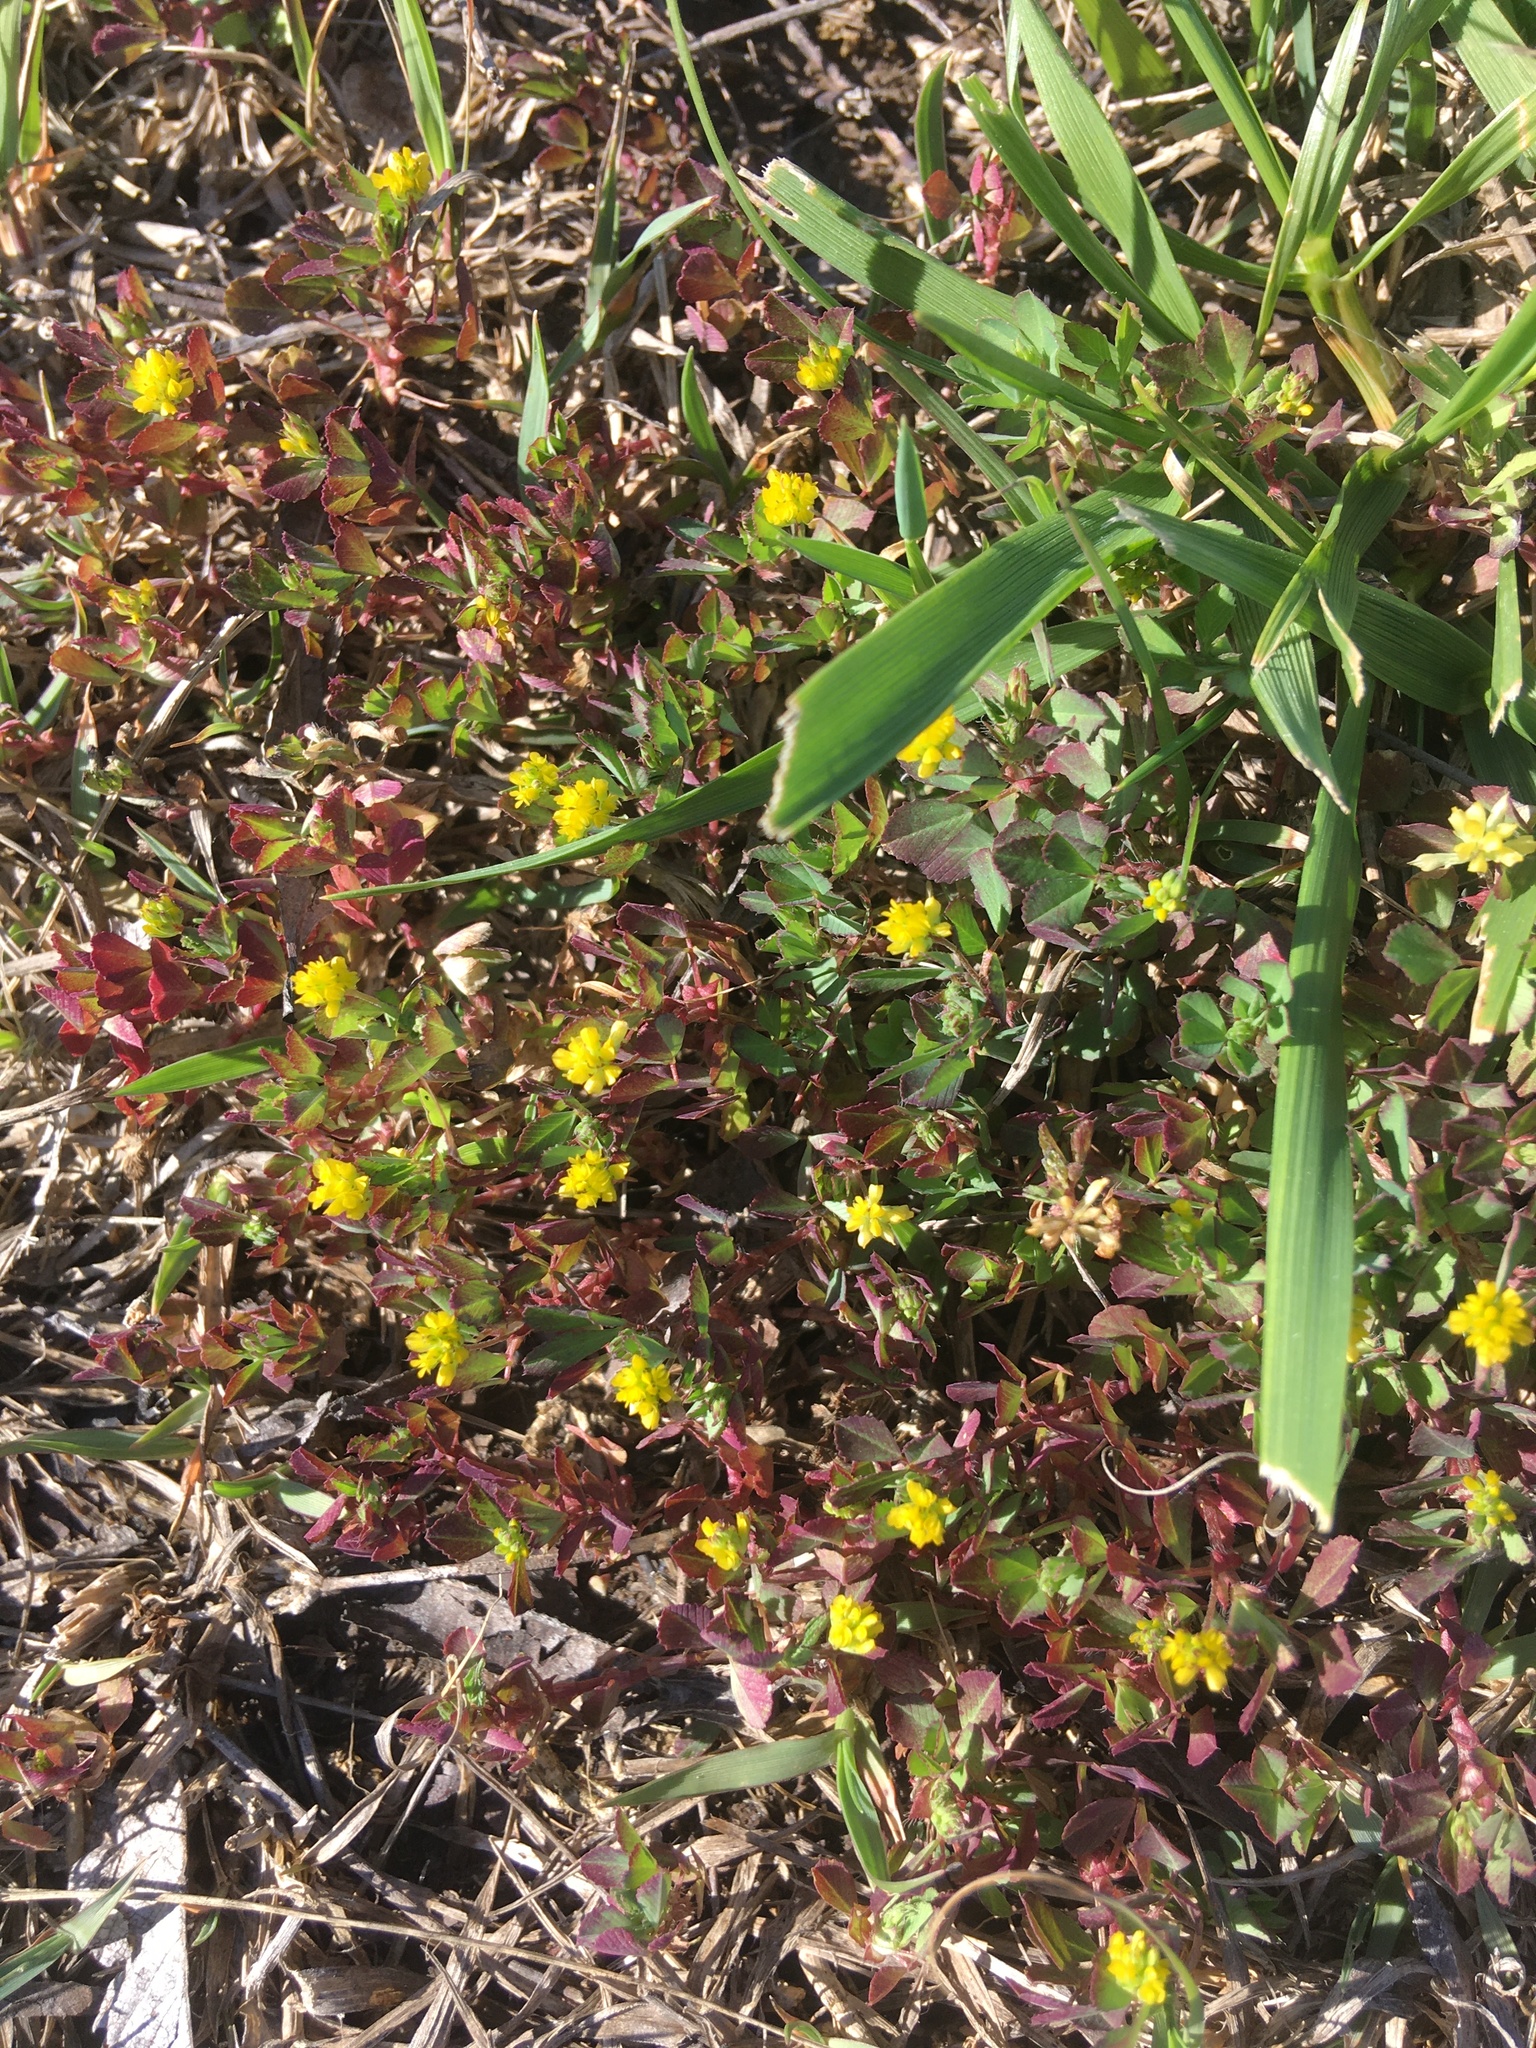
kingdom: Plantae
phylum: Tracheophyta
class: Magnoliopsida
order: Fabales
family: Fabaceae
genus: Trifolium
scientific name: Trifolium dubium
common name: Suckling clover
